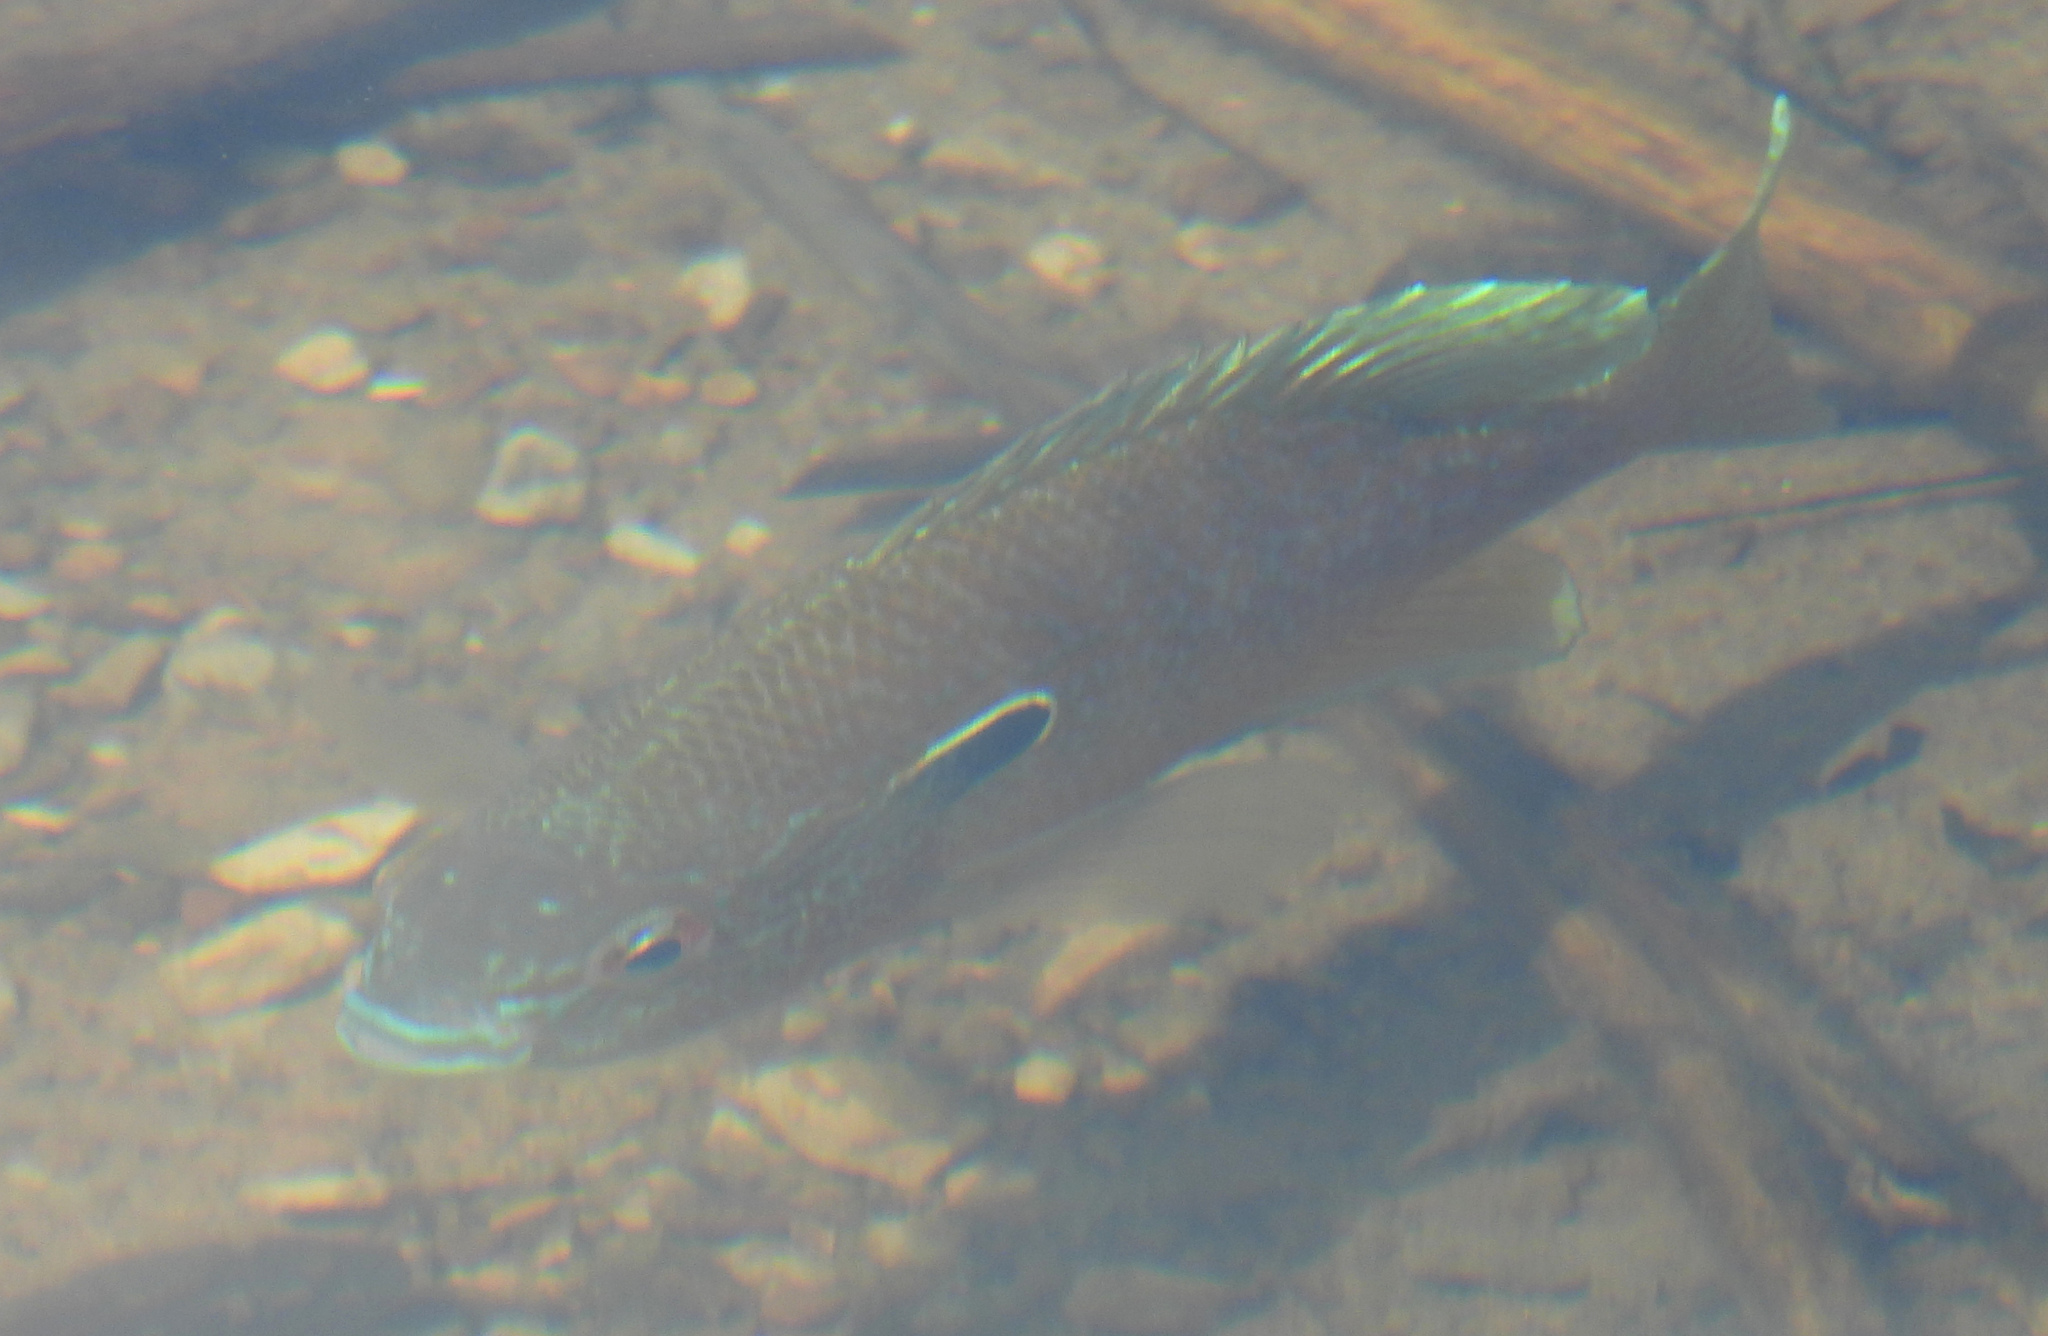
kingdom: Animalia
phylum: Chordata
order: Perciformes
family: Centrarchidae
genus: Lepomis
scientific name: Lepomis megalotis
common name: Longear sunfish
